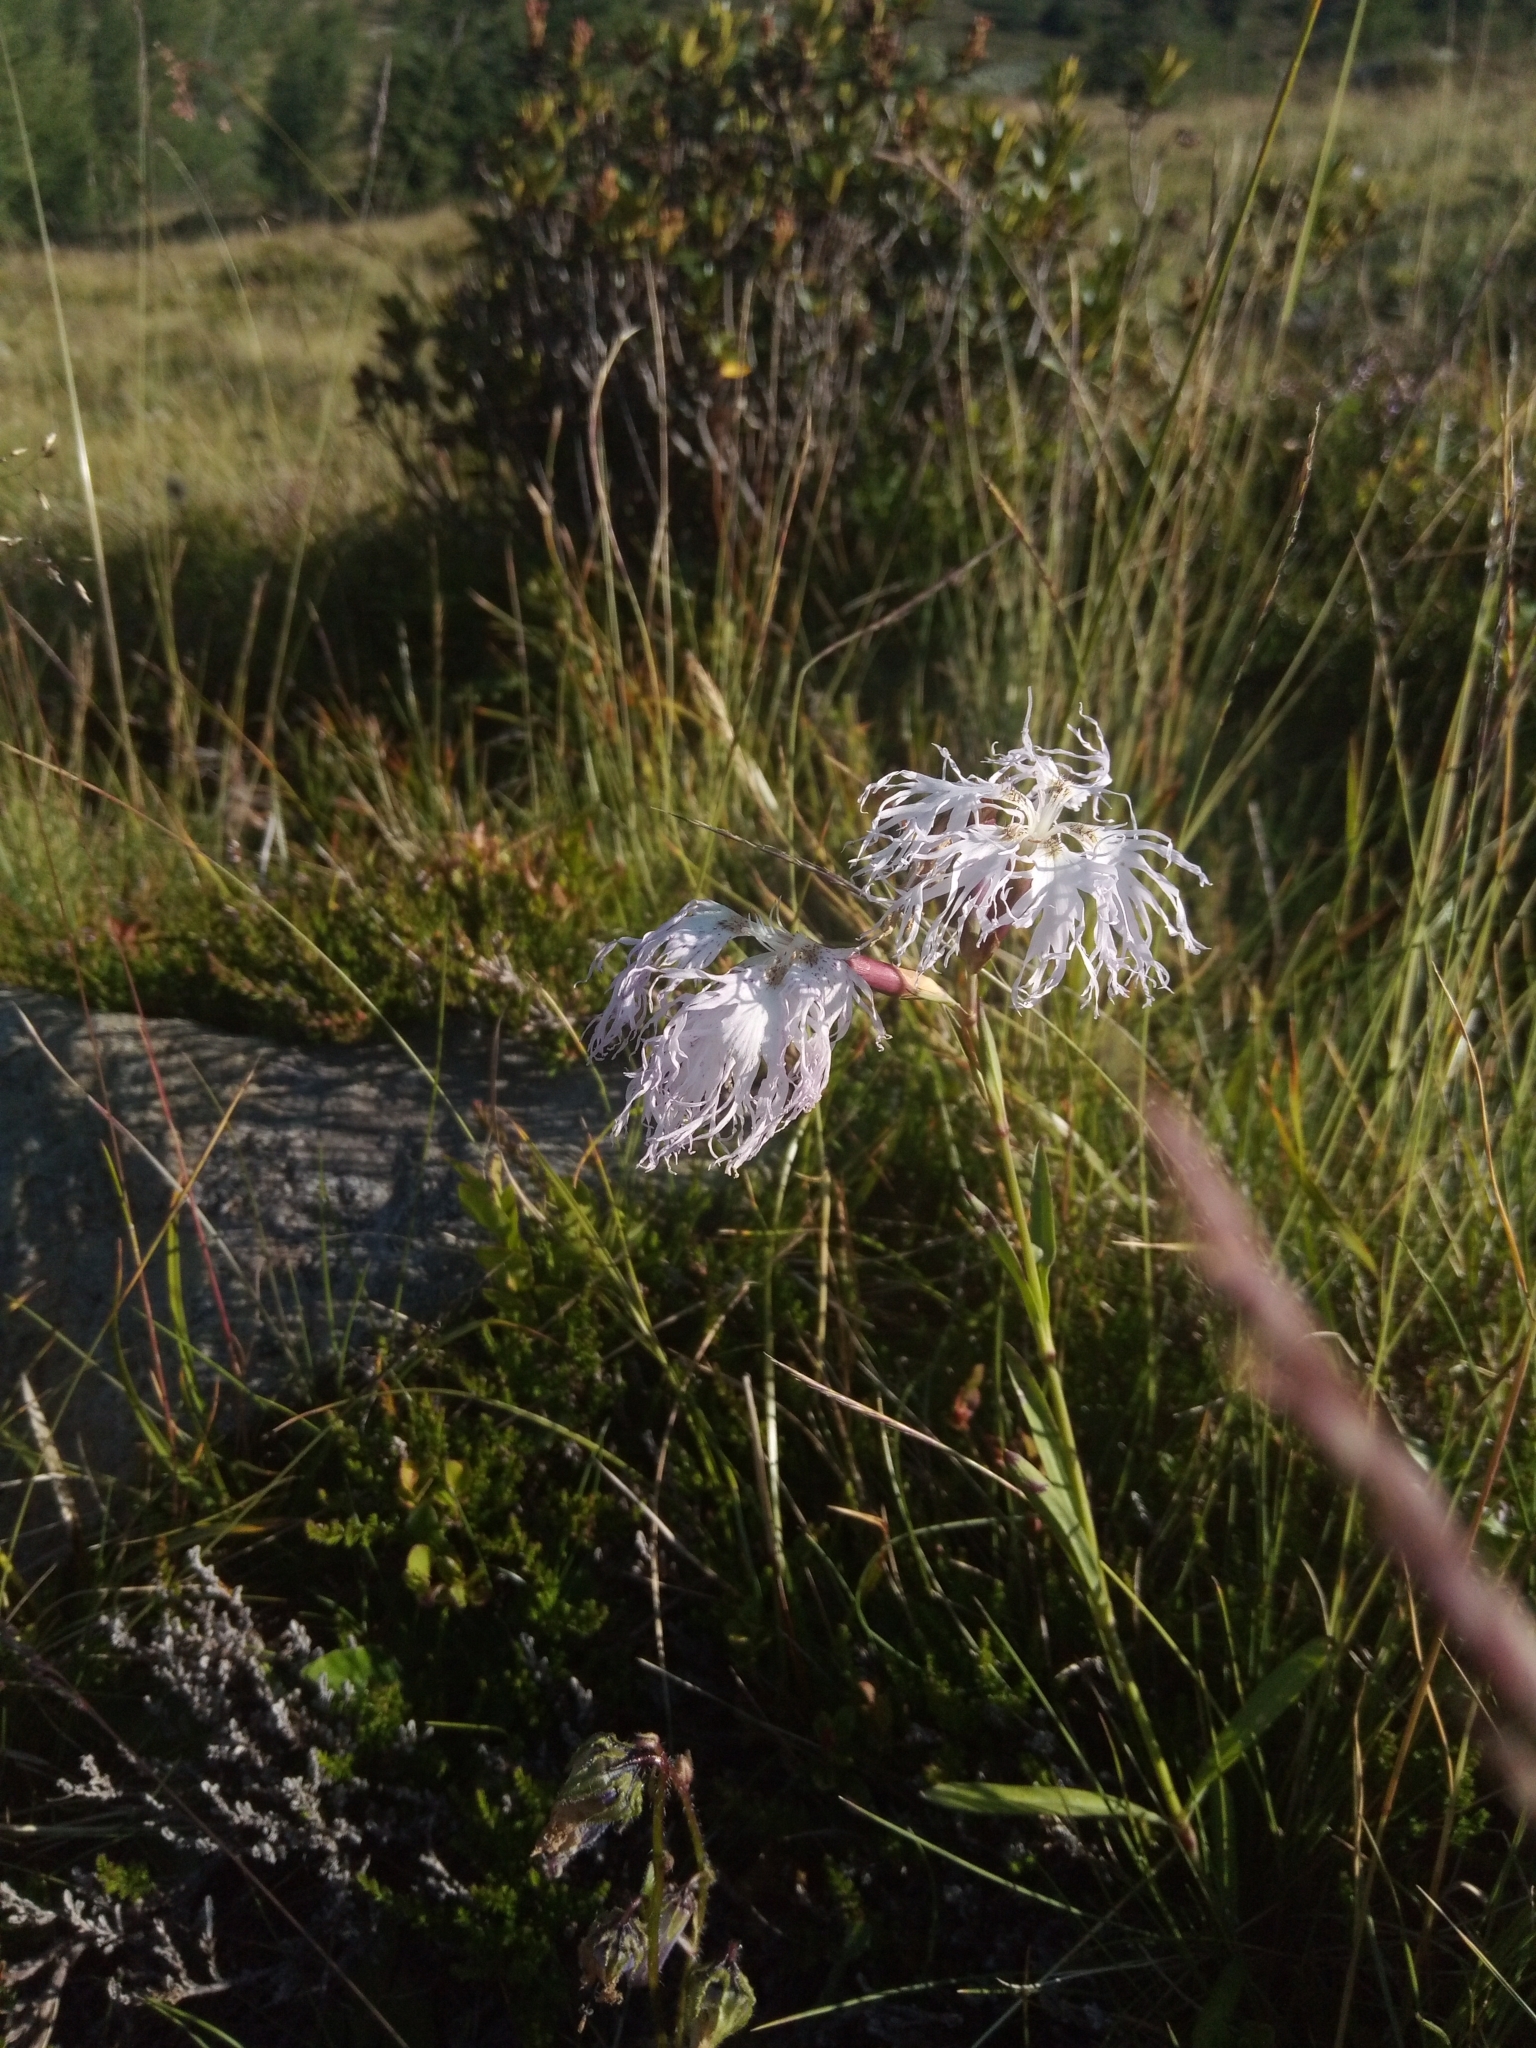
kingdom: Plantae
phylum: Tracheophyta
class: Magnoliopsida
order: Caryophyllales
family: Caryophyllaceae
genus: Dianthus
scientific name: Dianthus superbus
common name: Fringed pink
